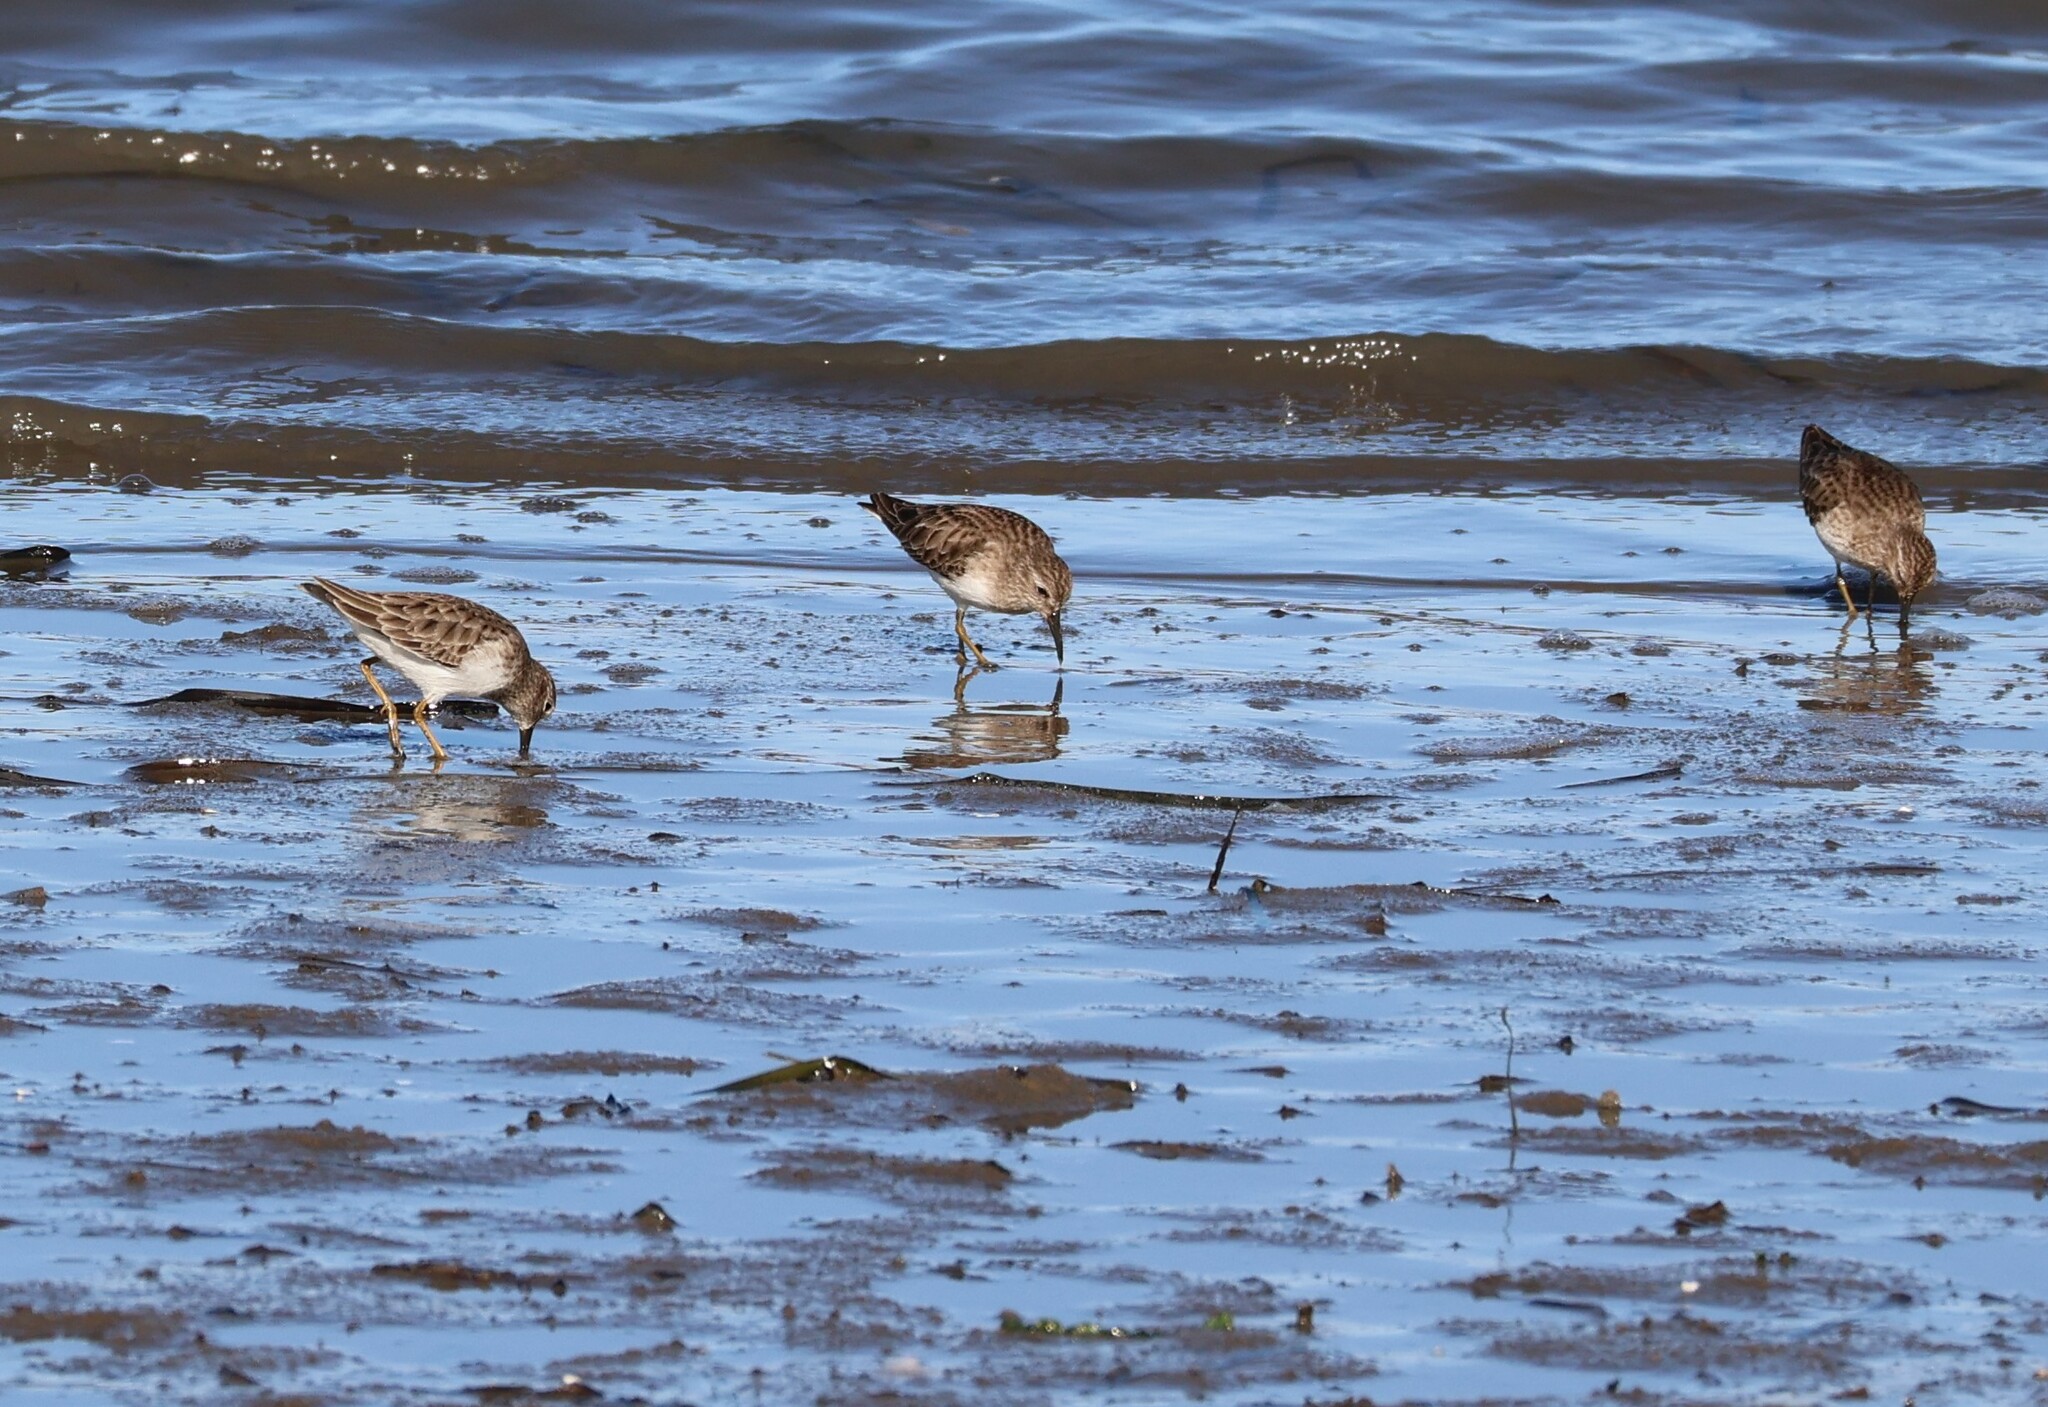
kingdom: Animalia
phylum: Chordata
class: Aves
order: Charadriiformes
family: Scolopacidae
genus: Calidris
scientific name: Calidris minutilla
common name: Least sandpiper
